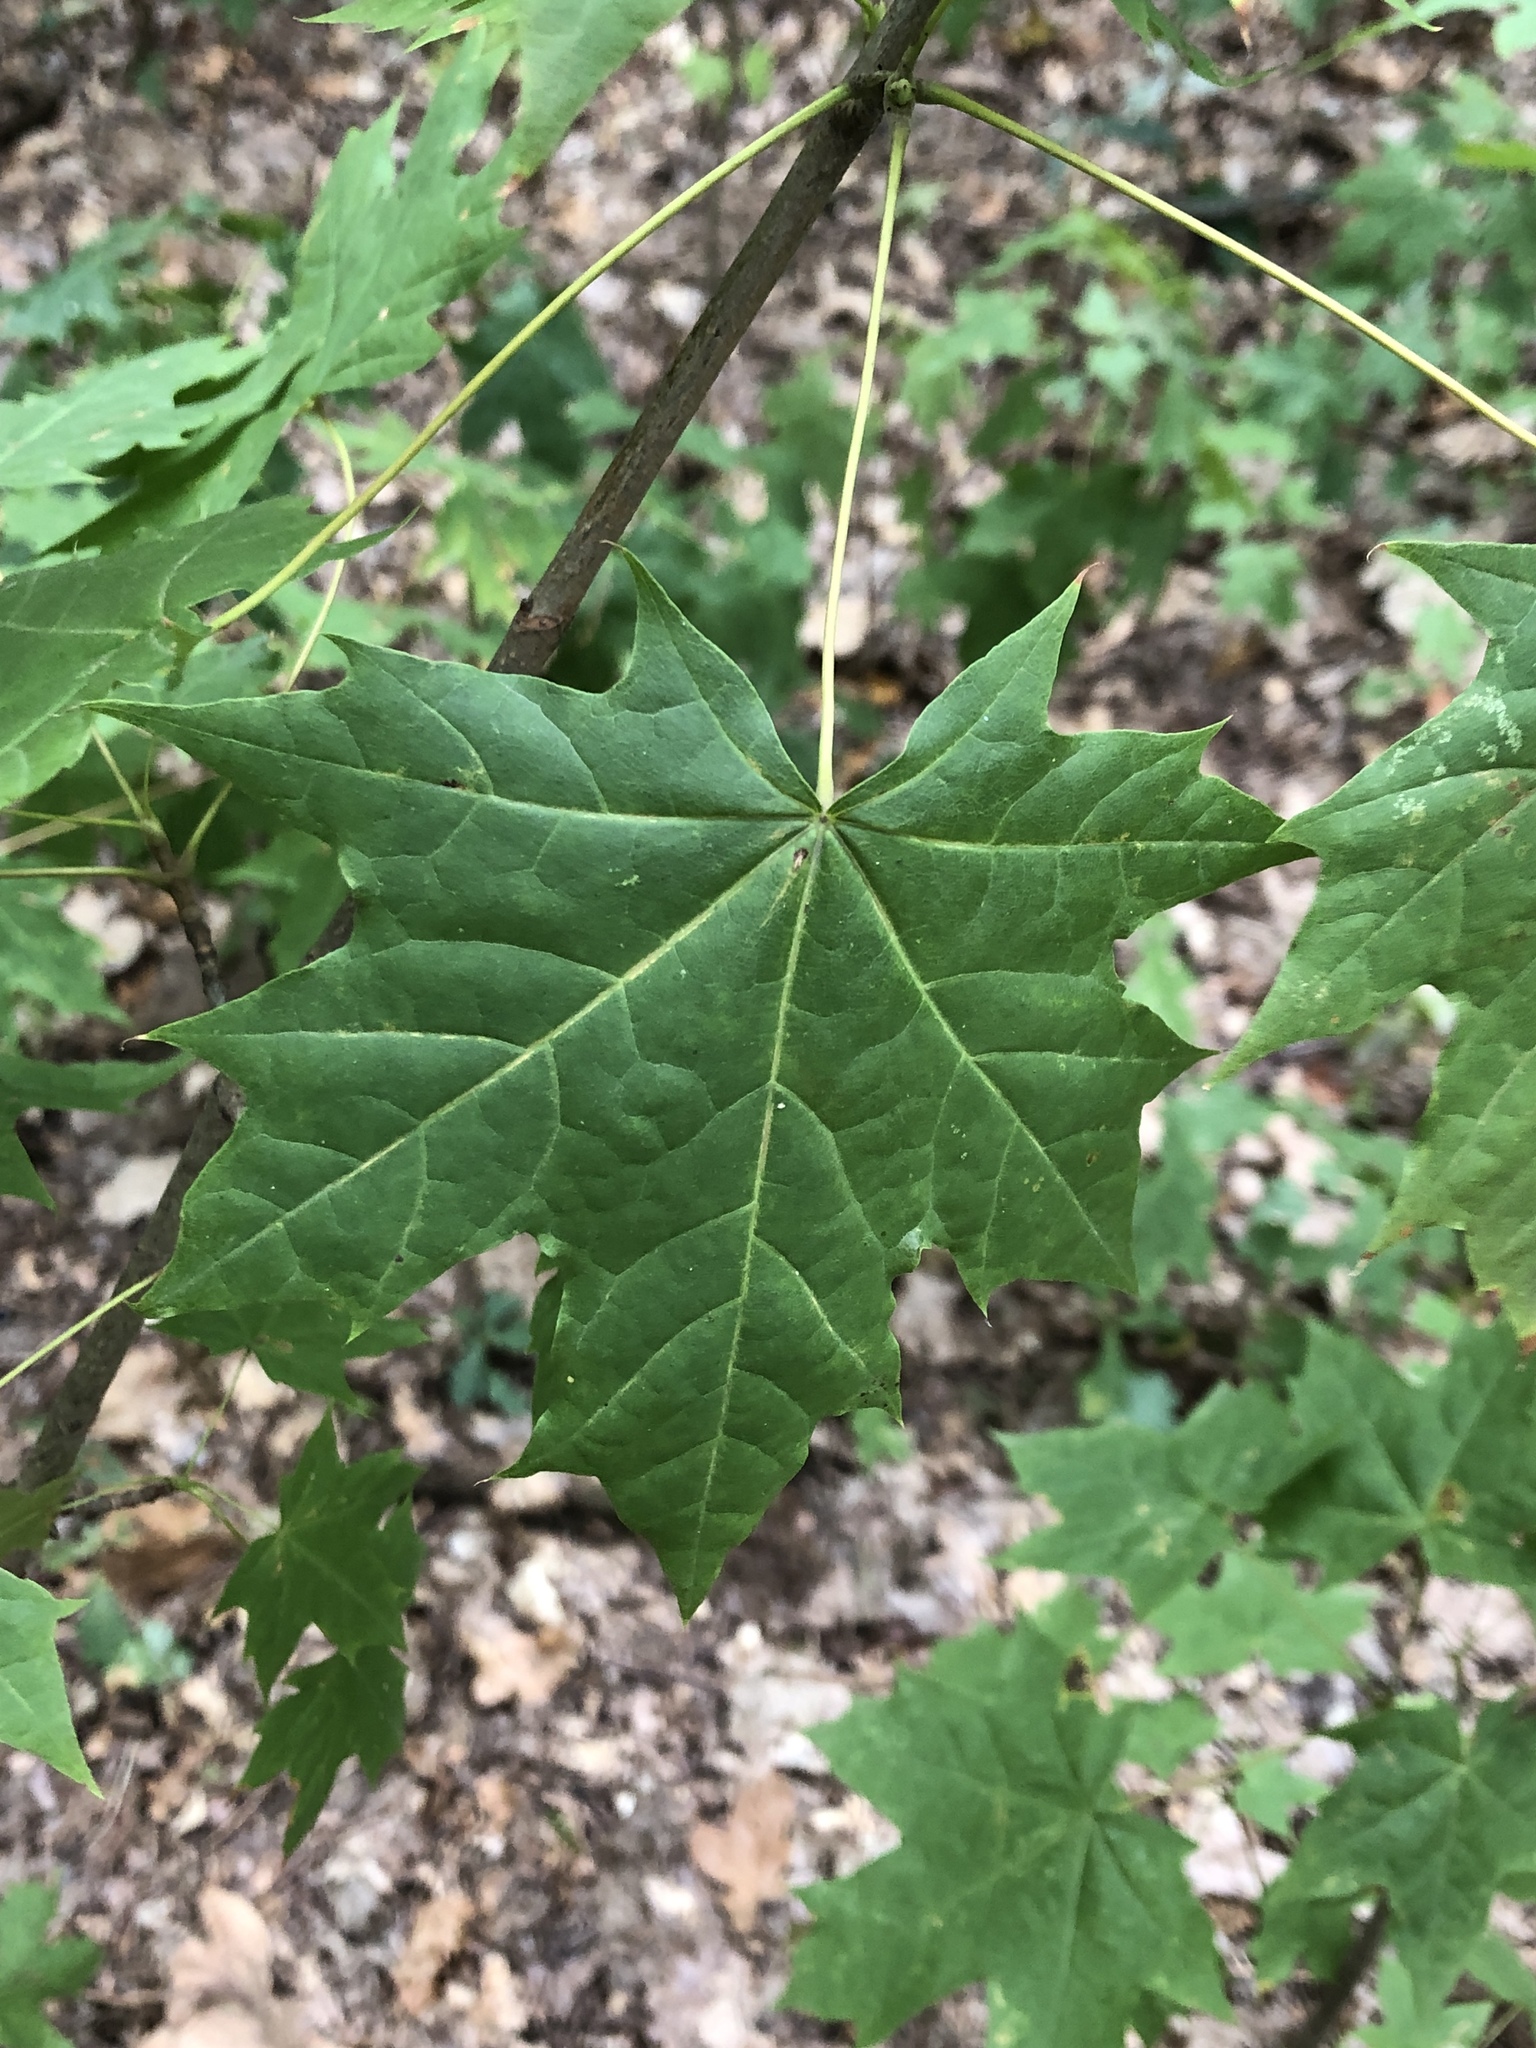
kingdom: Plantae
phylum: Tracheophyta
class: Magnoliopsida
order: Sapindales
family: Sapindaceae
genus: Acer
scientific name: Acer platanoides
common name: Norway maple
